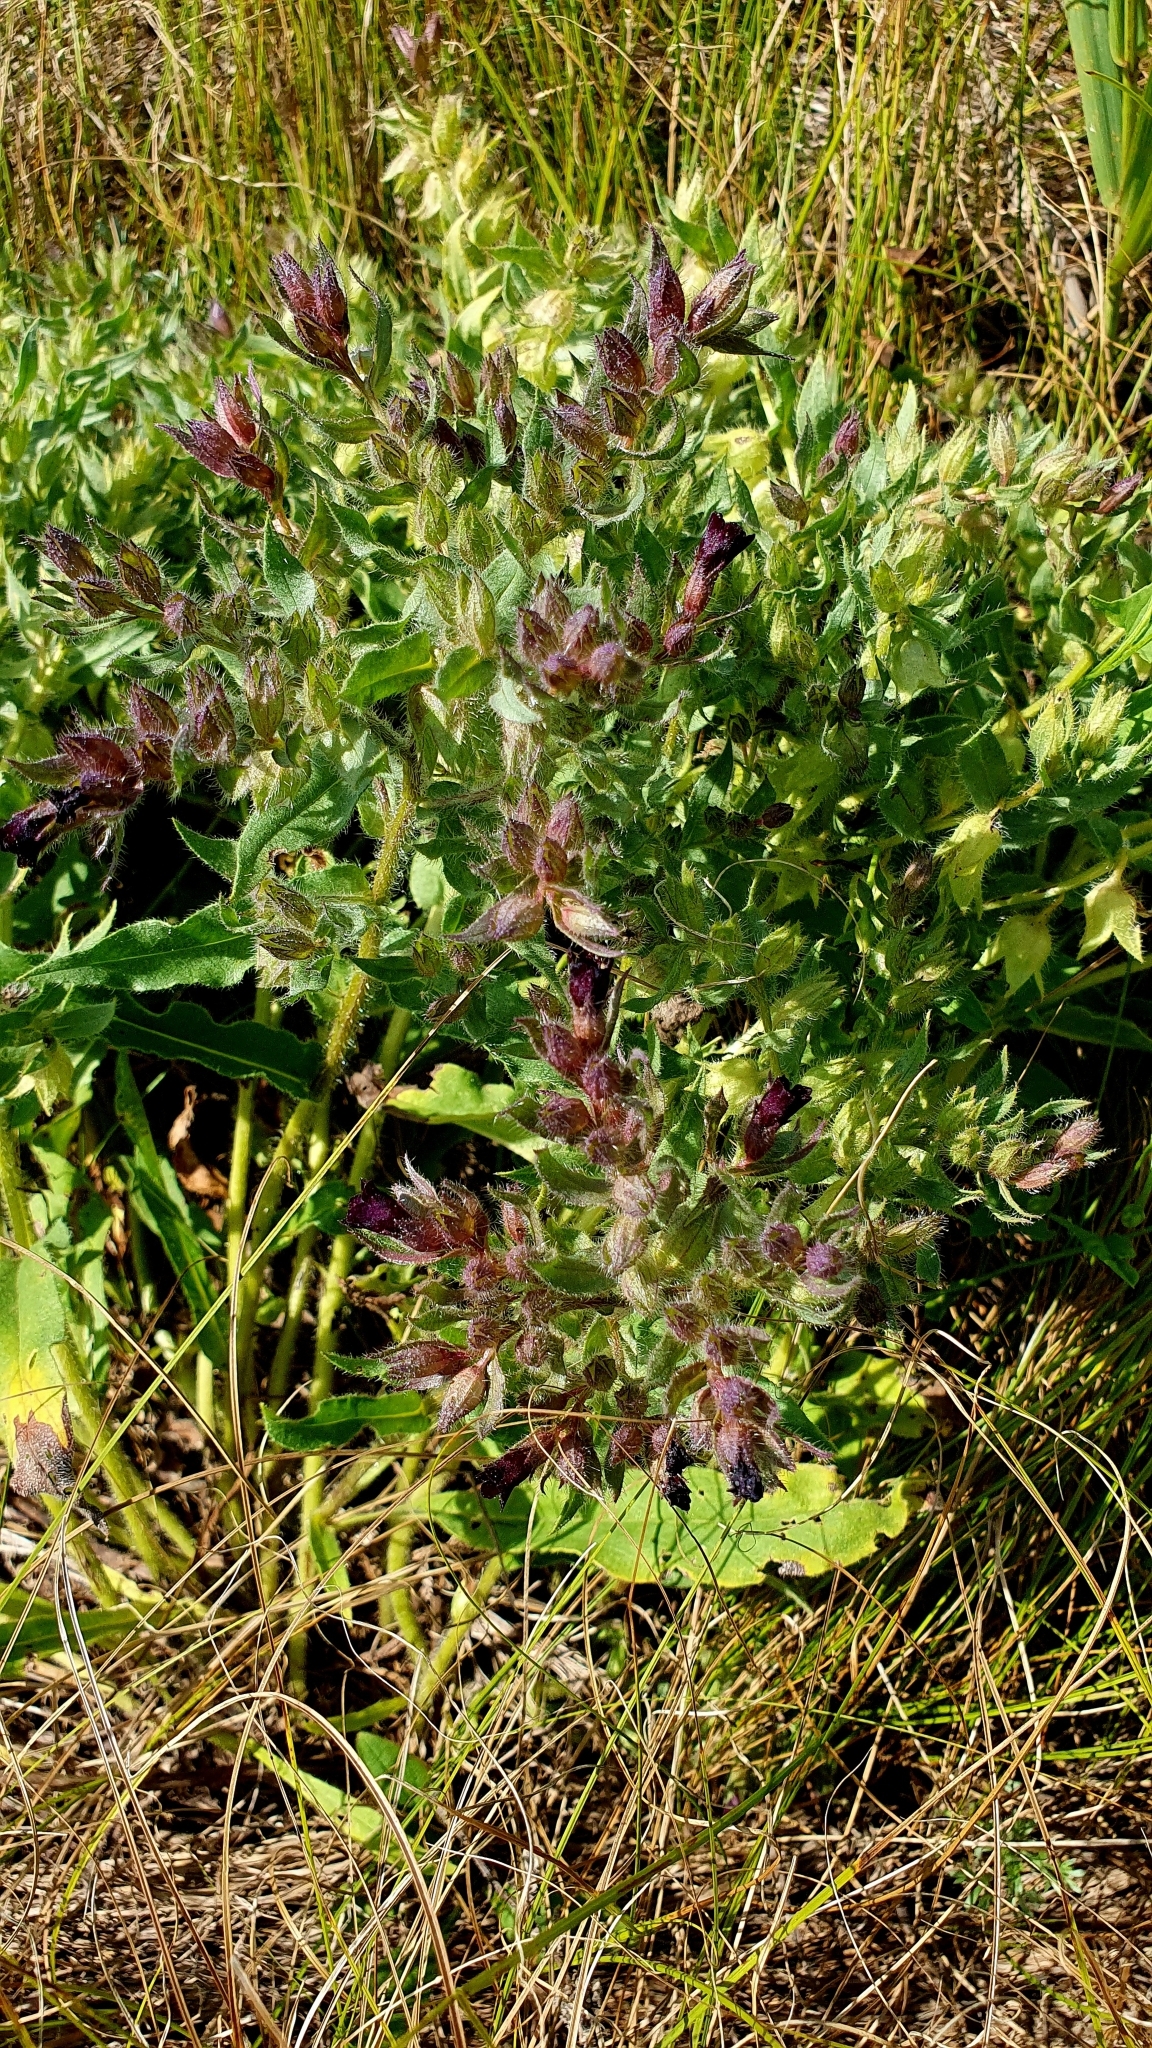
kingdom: Plantae
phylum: Tracheophyta
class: Magnoliopsida
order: Boraginales
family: Boraginaceae
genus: Nonea
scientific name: Nonea pulla
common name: Brown nonea
